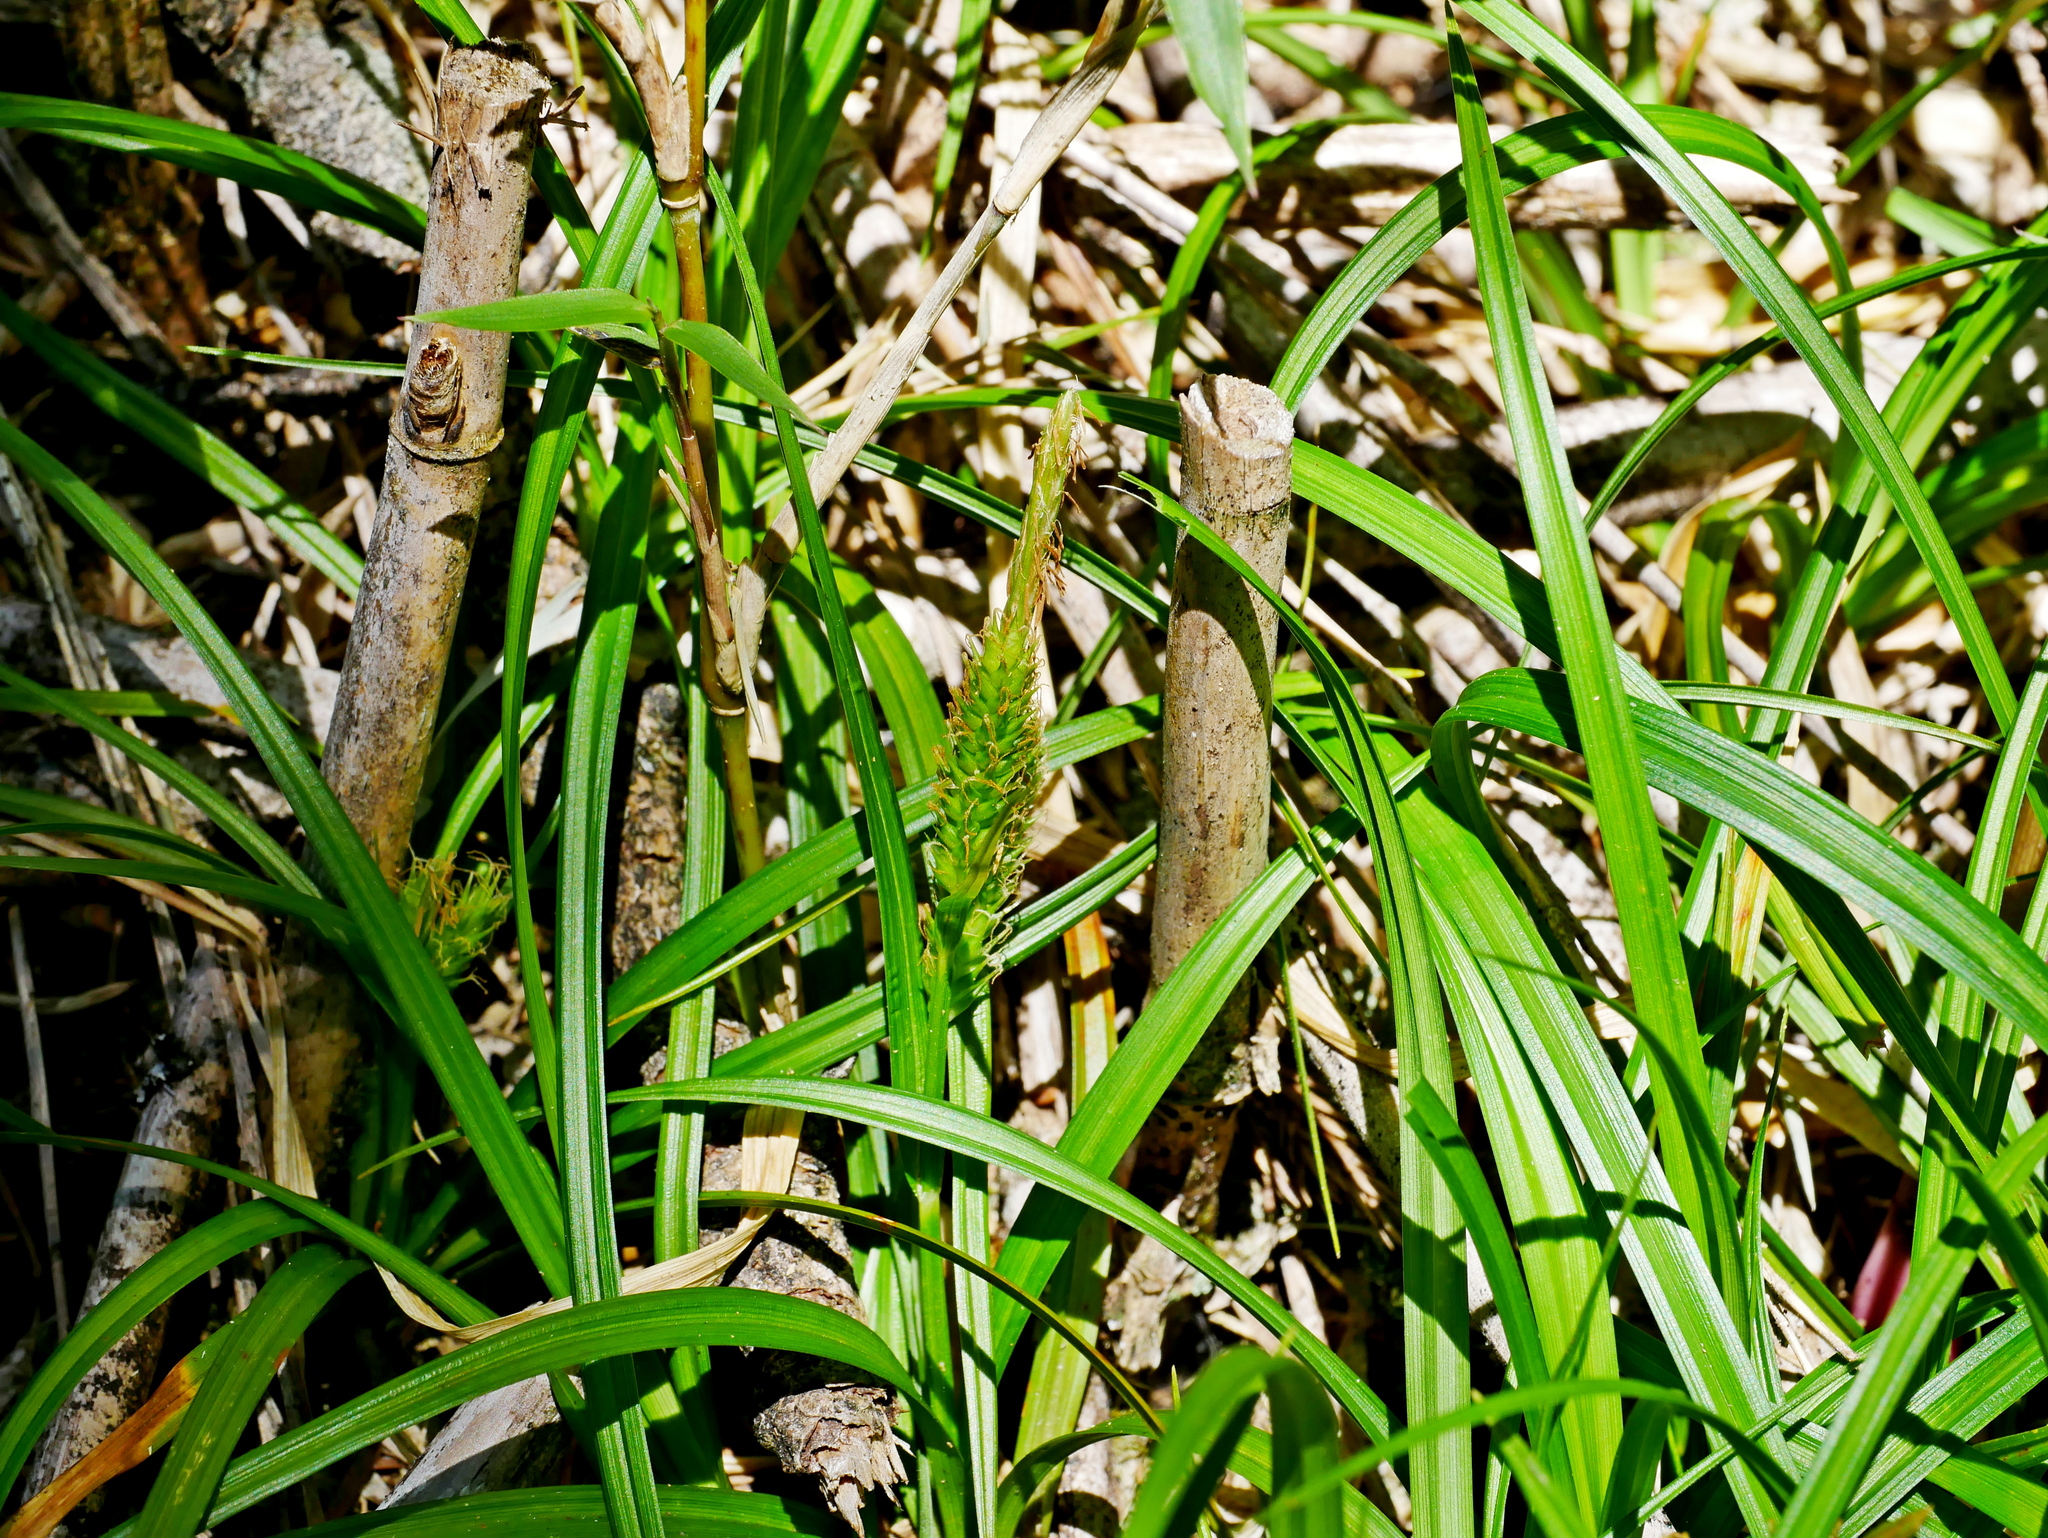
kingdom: Plantae
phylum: Tracheophyta
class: Liliopsida
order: Poales
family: Cyperaceae
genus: Carex
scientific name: Carex liui
